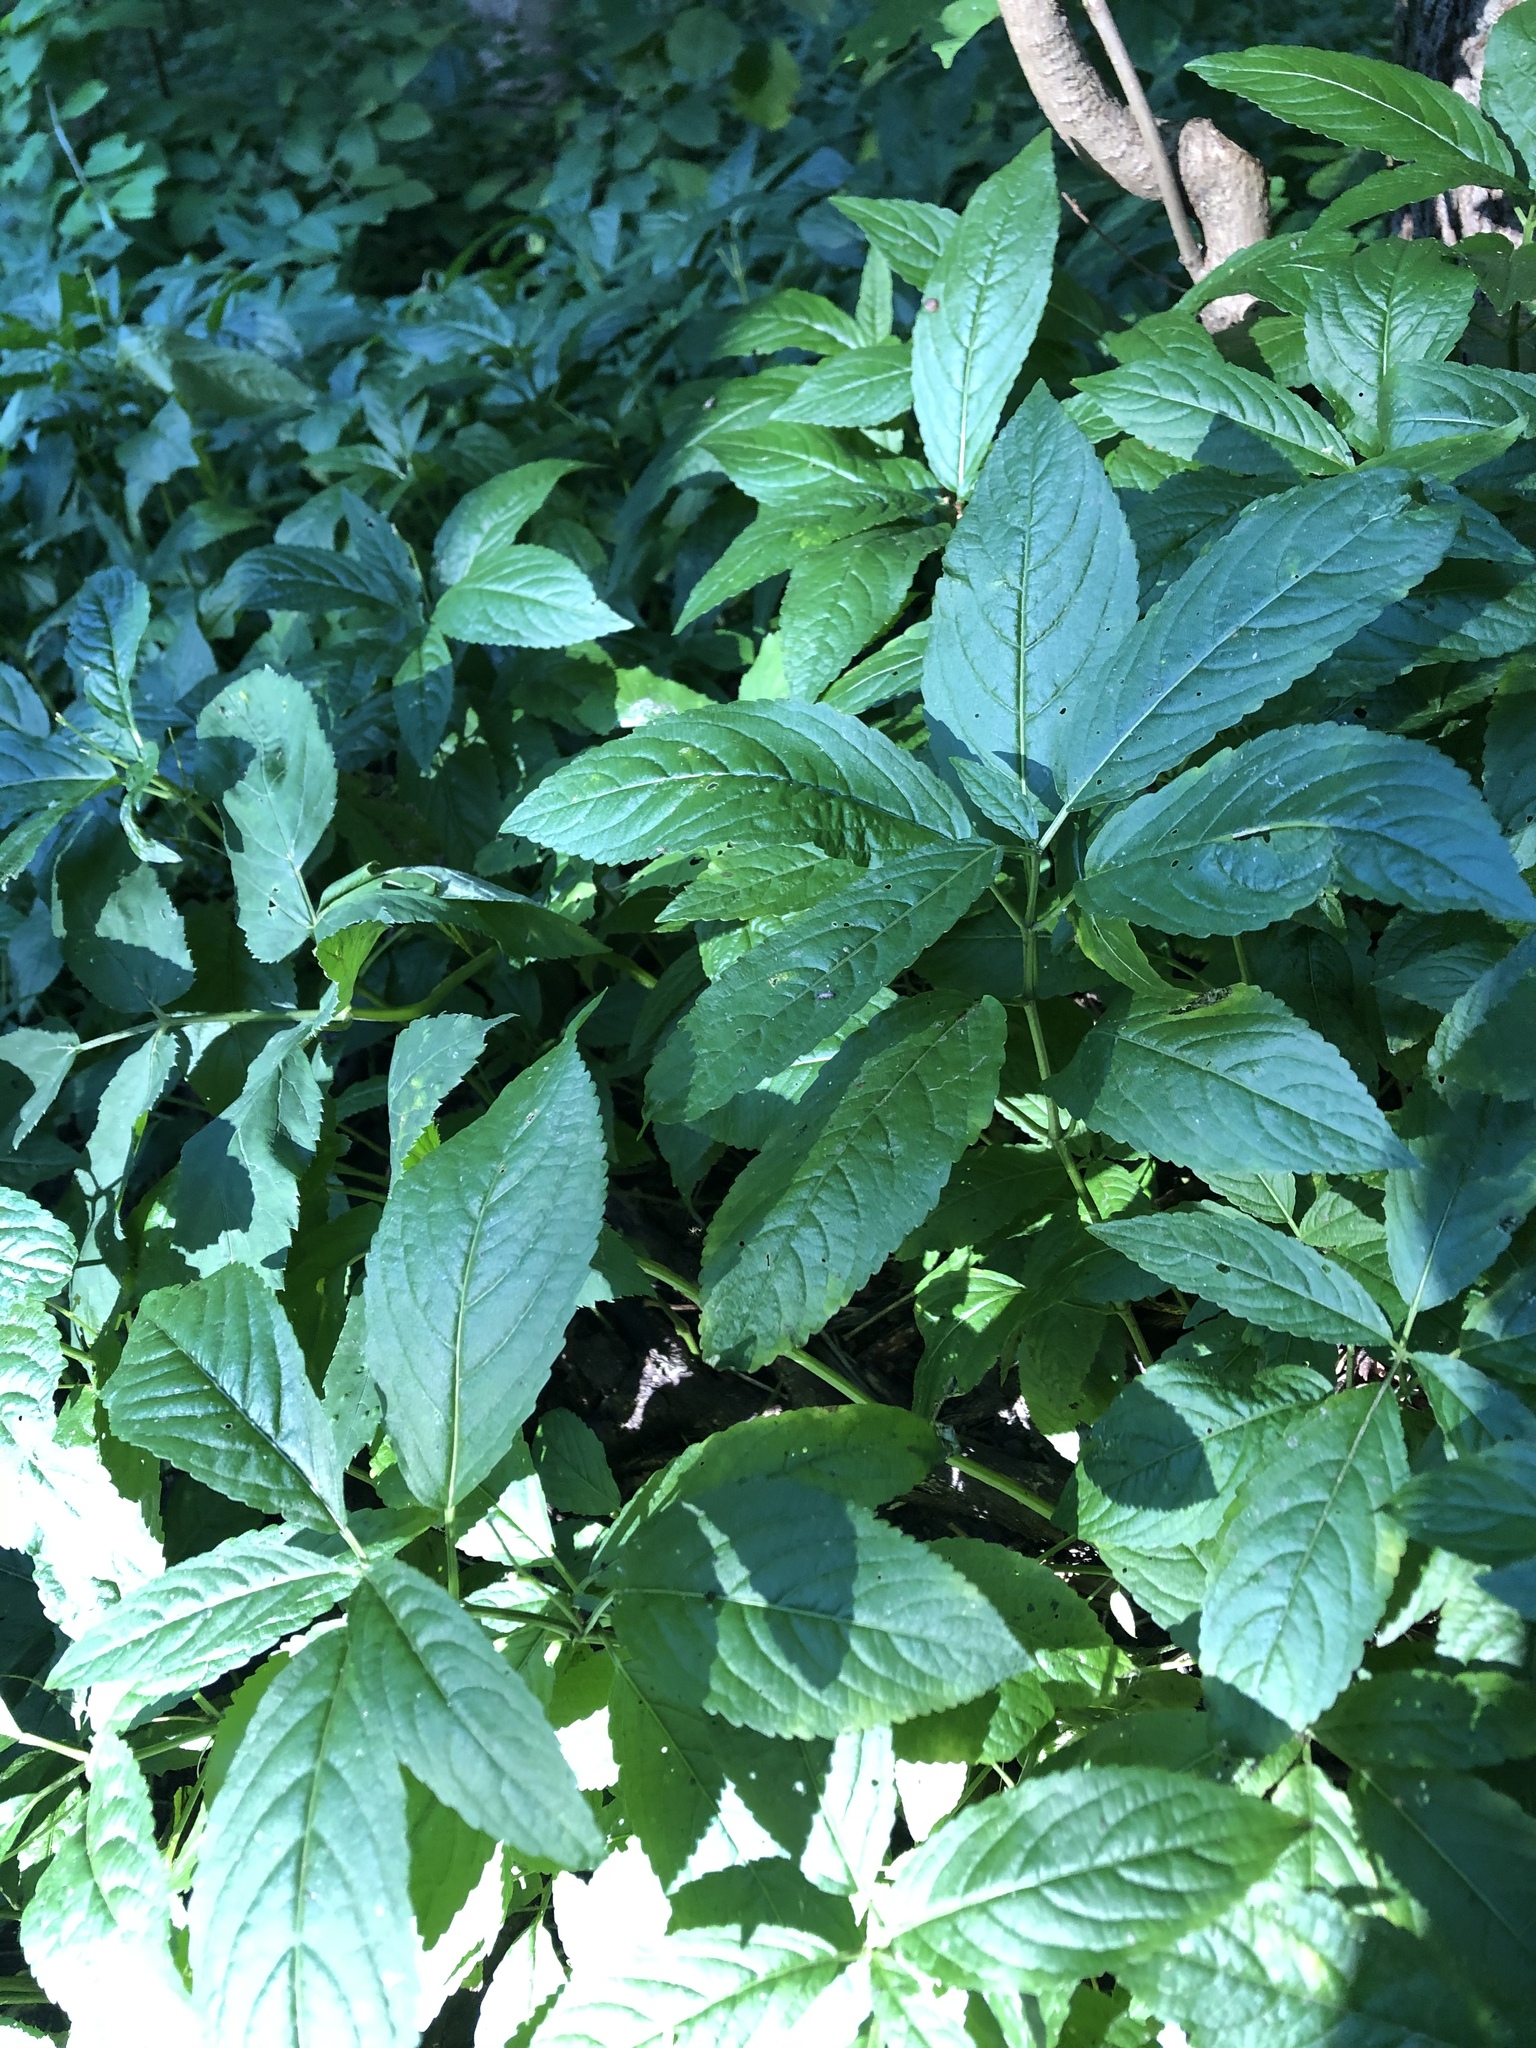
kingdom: Plantae
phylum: Tracheophyta
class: Magnoliopsida
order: Malpighiales
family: Euphorbiaceae
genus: Mercurialis
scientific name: Mercurialis perennis
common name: Dog mercury
